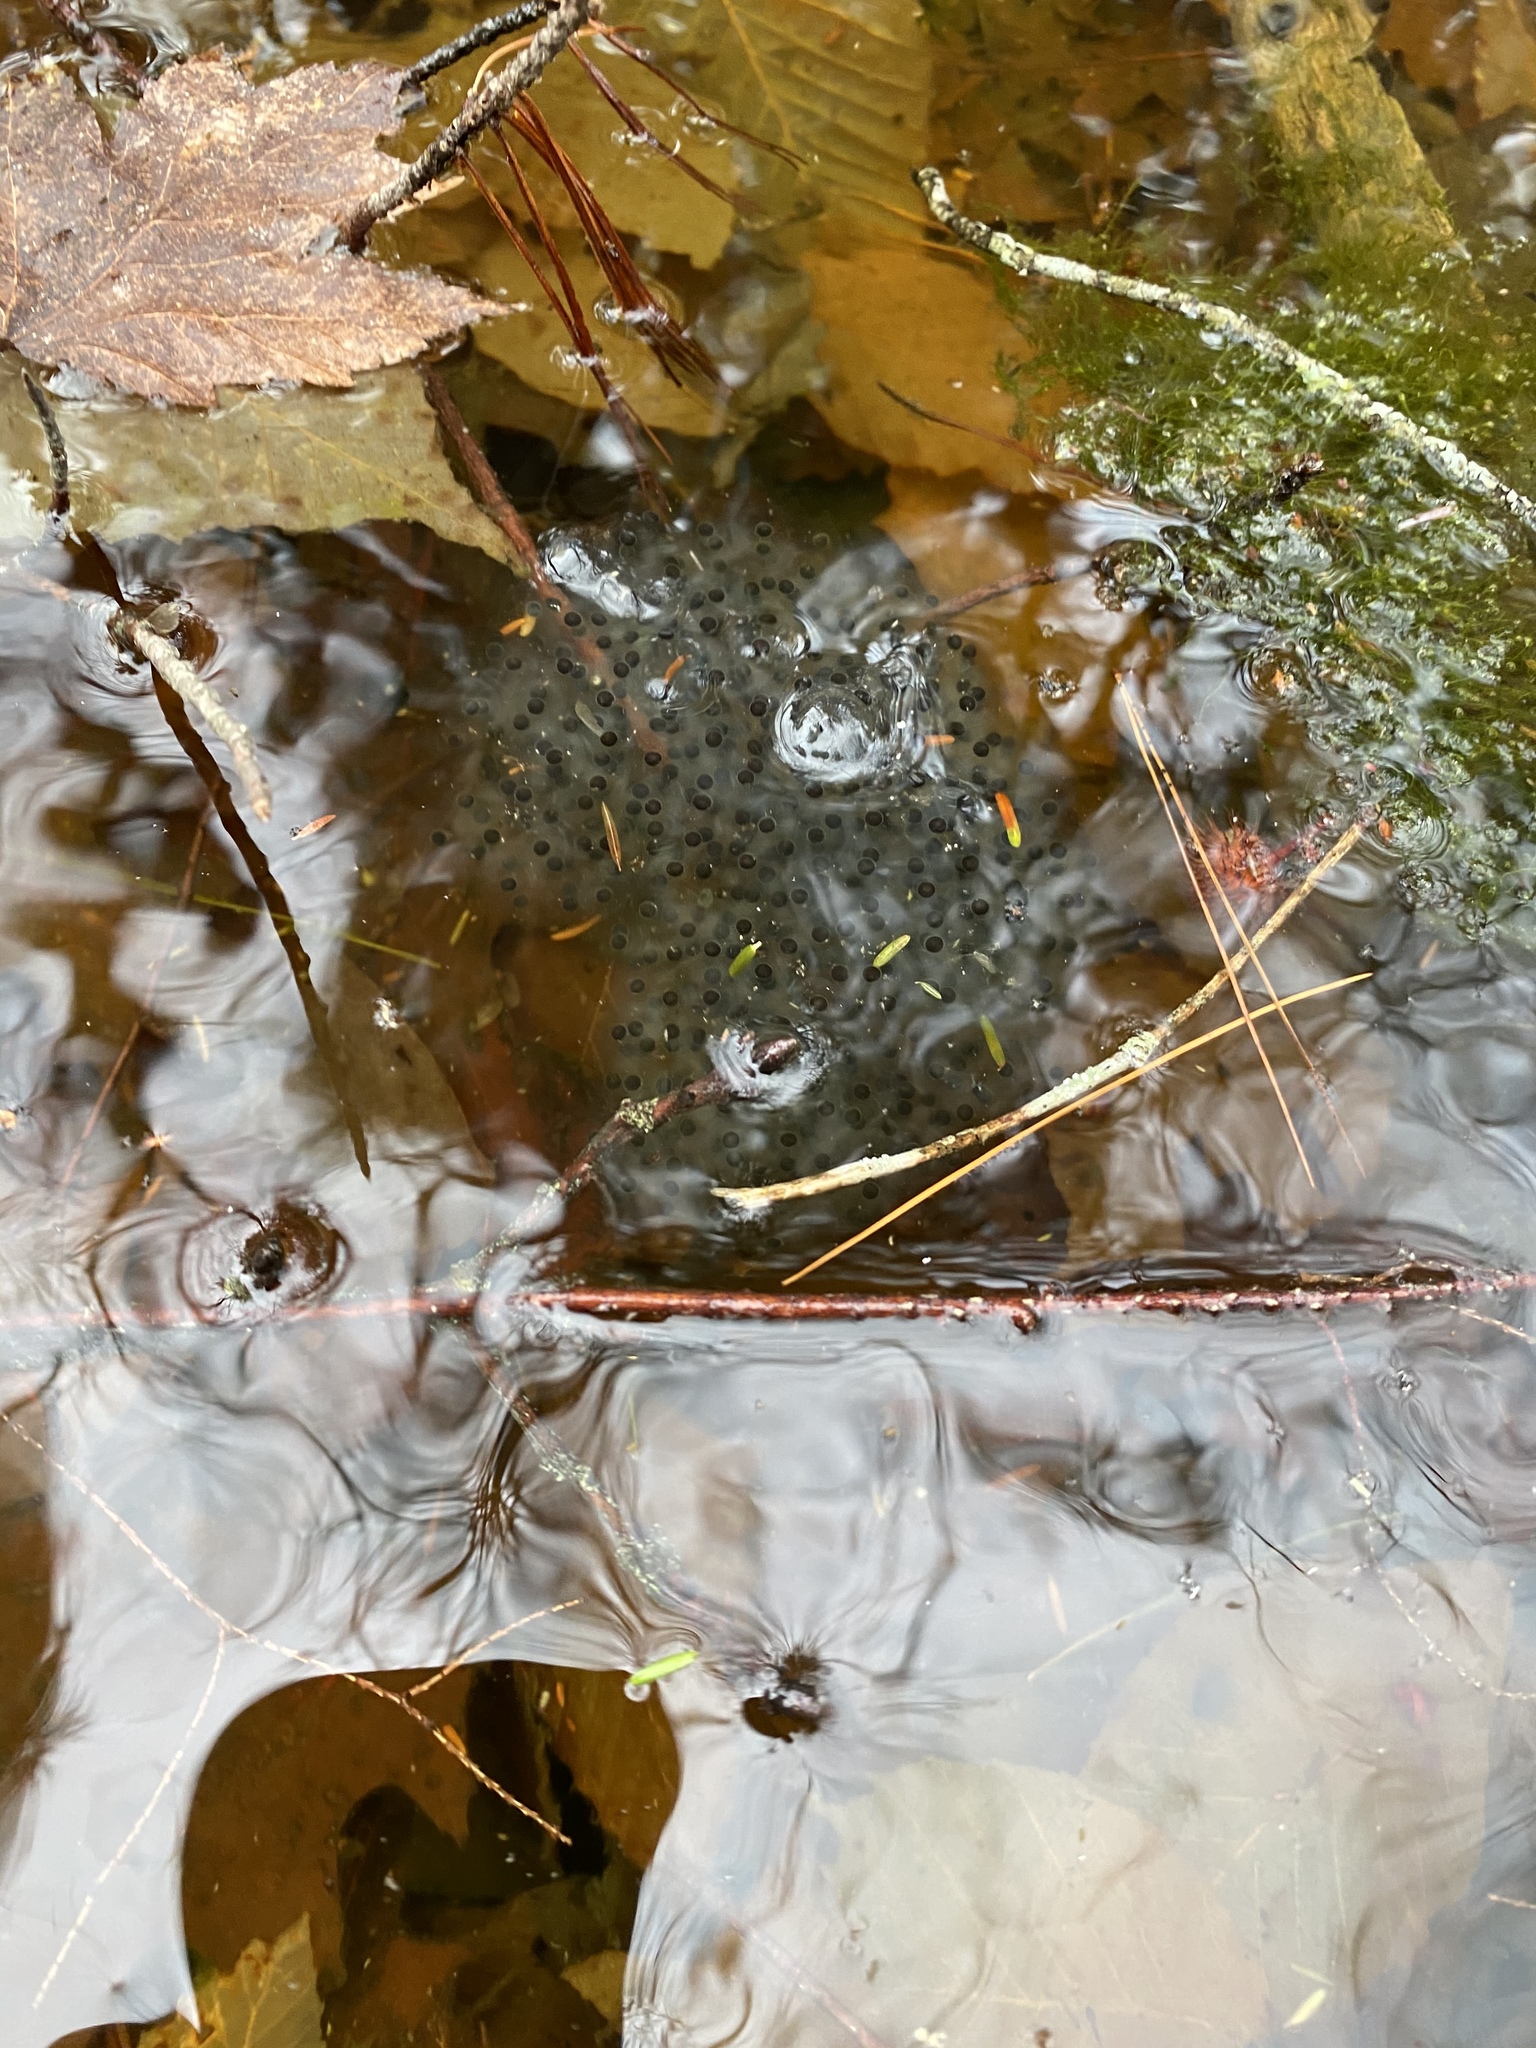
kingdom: Animalia
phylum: Chordata
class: Amphibia
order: Anura
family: Ranidae
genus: Lithobates
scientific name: Lithobates sylvaticus
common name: Wood frog
